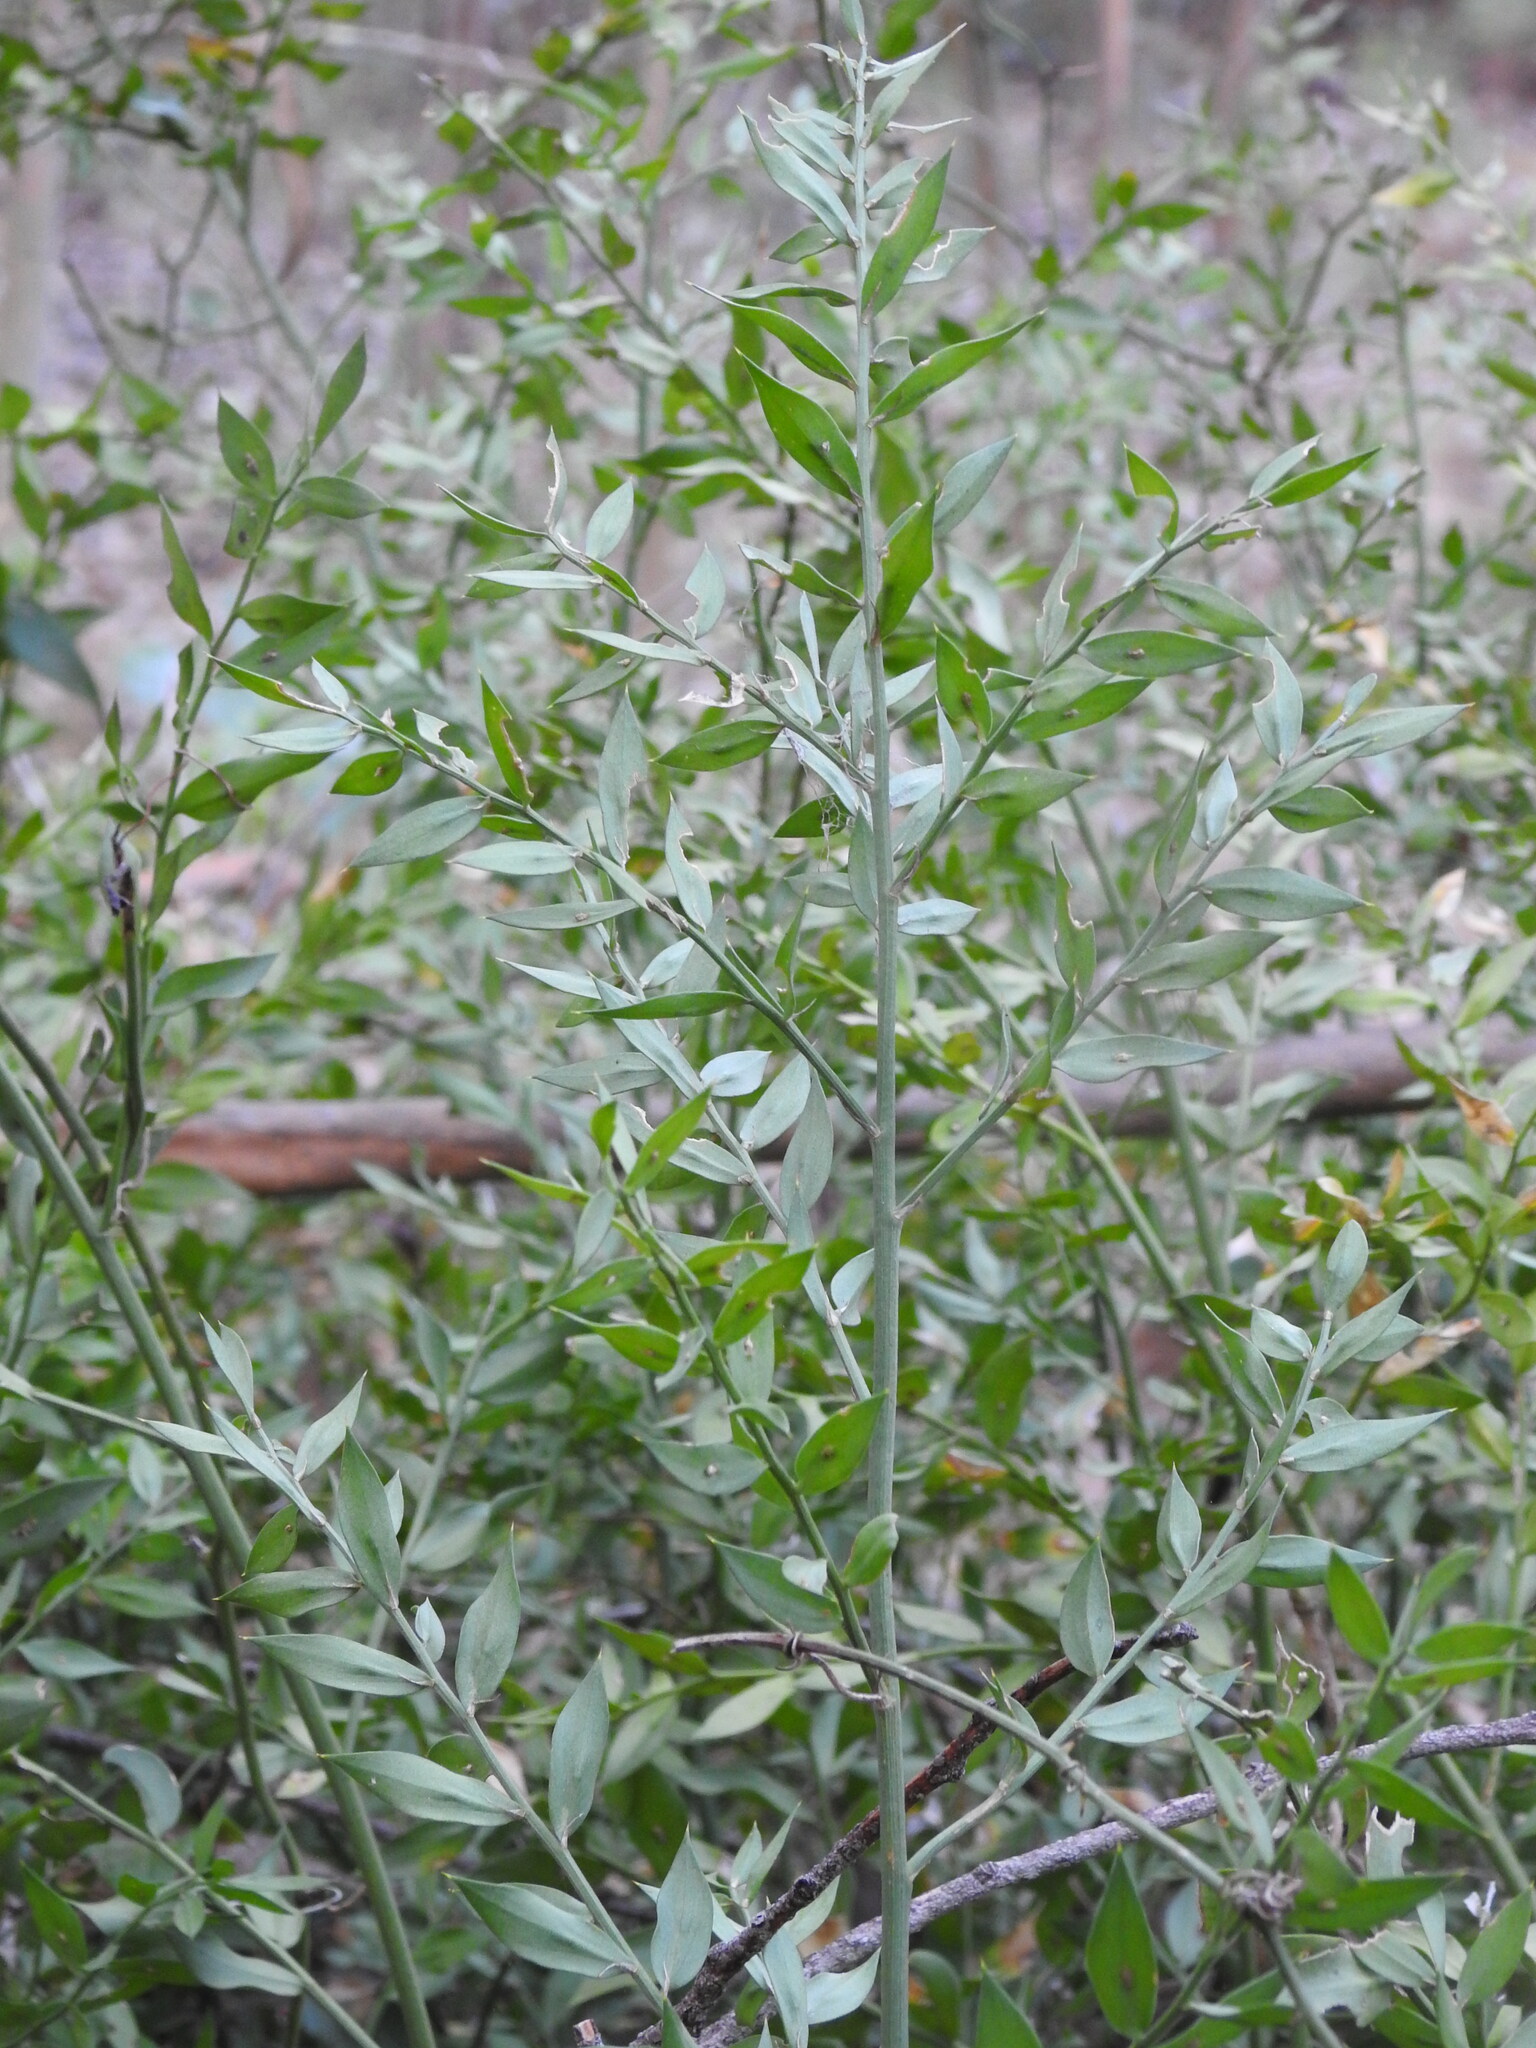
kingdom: Plantae
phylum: Tracheophyta
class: Liliopsida
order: Asparagales
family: Asparagaceae
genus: Ruscus
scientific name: Ruscus aculeatus
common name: Butcher's-broom
